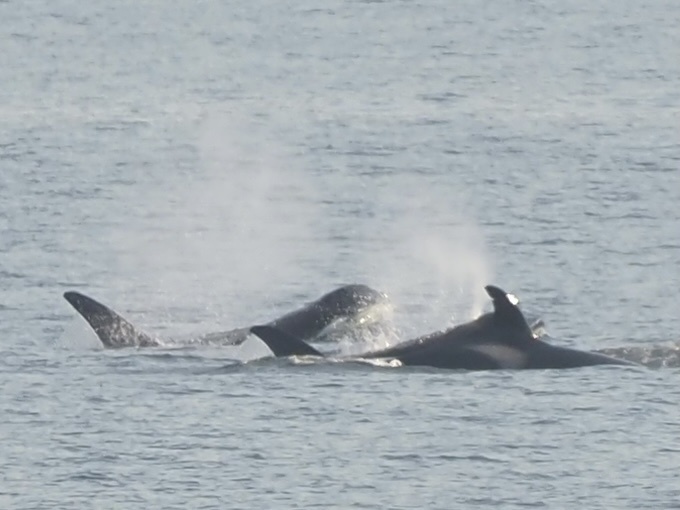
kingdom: Animalia
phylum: Chordata
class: Mammalia
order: Cetacea
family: Delphinidae
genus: Orcinus
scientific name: Orcinus orca
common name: Killer whale
